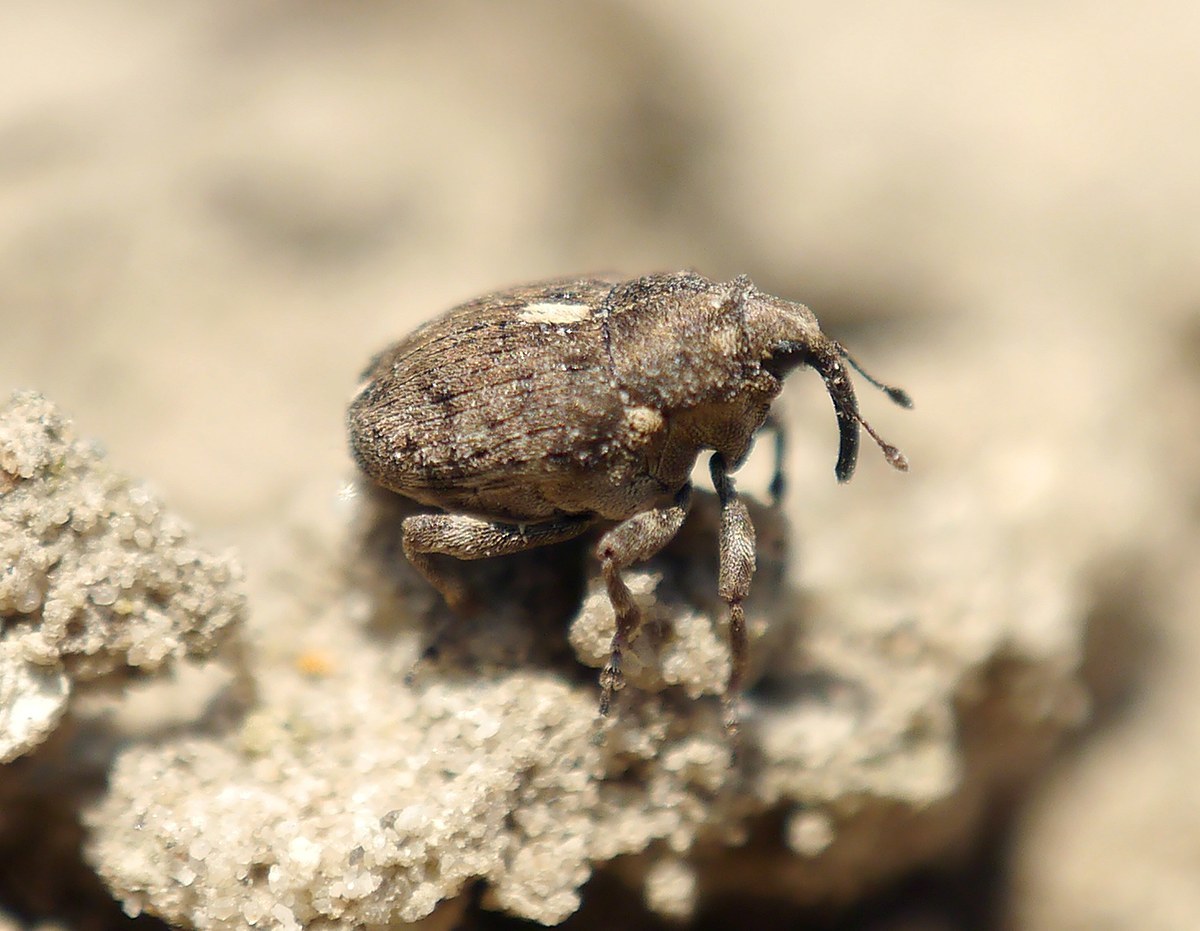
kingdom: Animalia
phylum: Arthropoda
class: Insecta
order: Coleoptera
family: Curculionidae
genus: Ethelcus
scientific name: Ethelcus denticulatus
